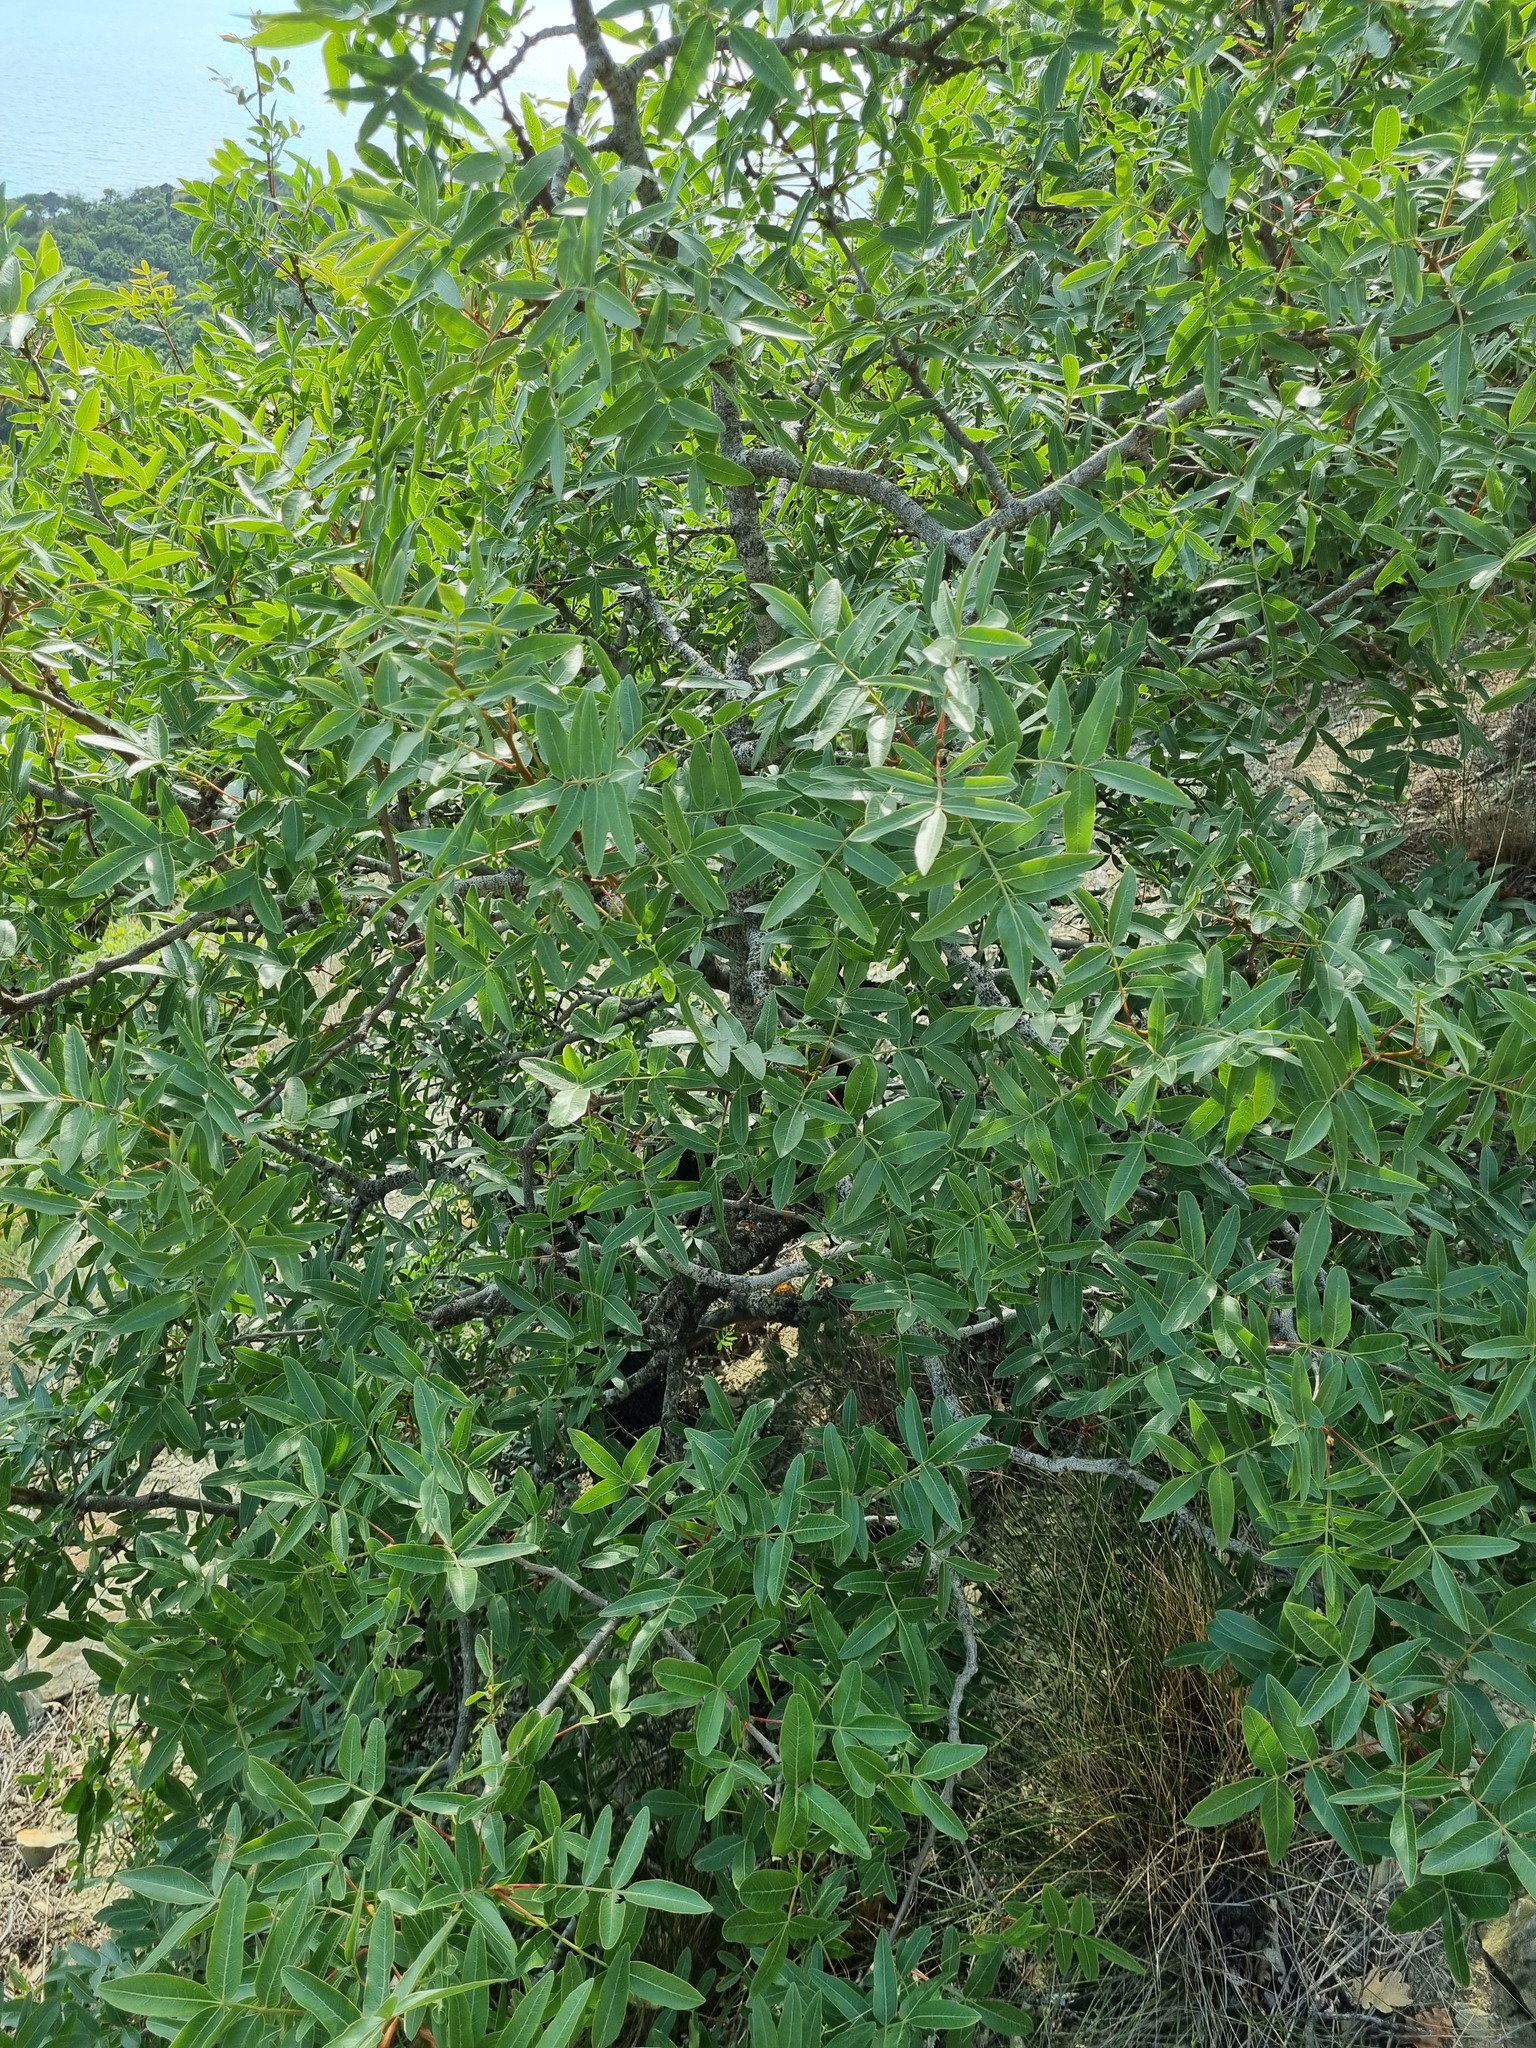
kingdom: Plantae
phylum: Tracheophyta
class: Magnoliopsida
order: Sapindales
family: Anacardiaceae
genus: Pistacia
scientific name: Pistacia atlantica
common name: Mt. atlas mastic tree
